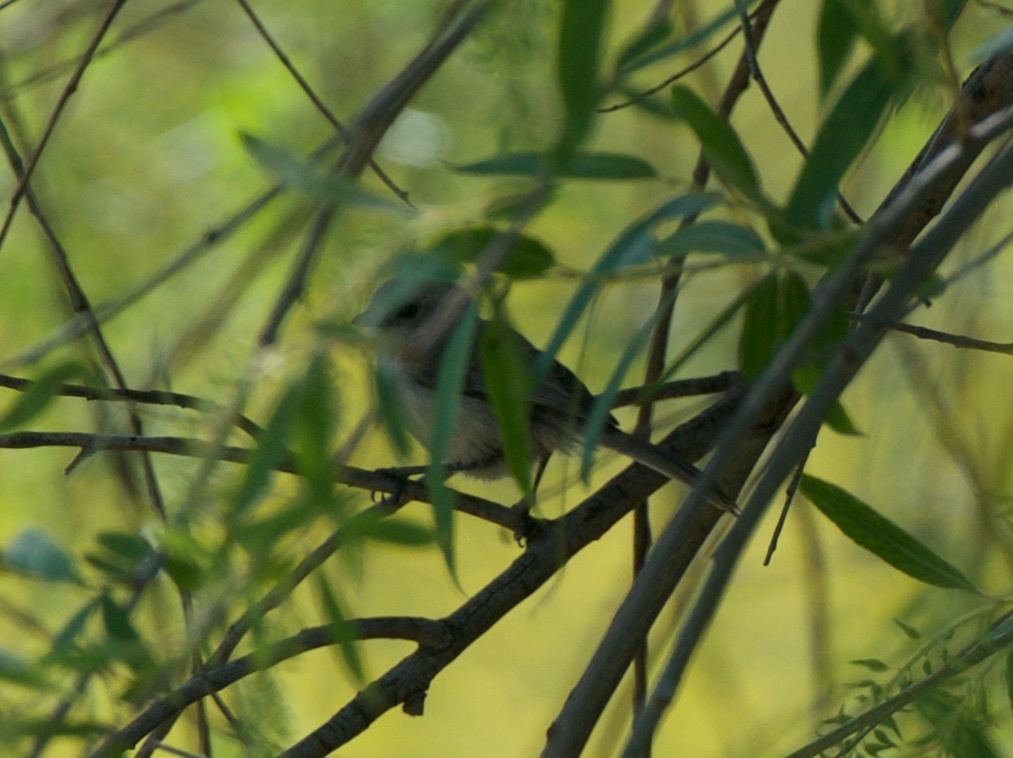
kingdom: Animalia
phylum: Chordata
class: Aves
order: Passeriformes
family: Aegithalidae
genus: Psaltriparus
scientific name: Psaltriparus minimus
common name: American bushtit
